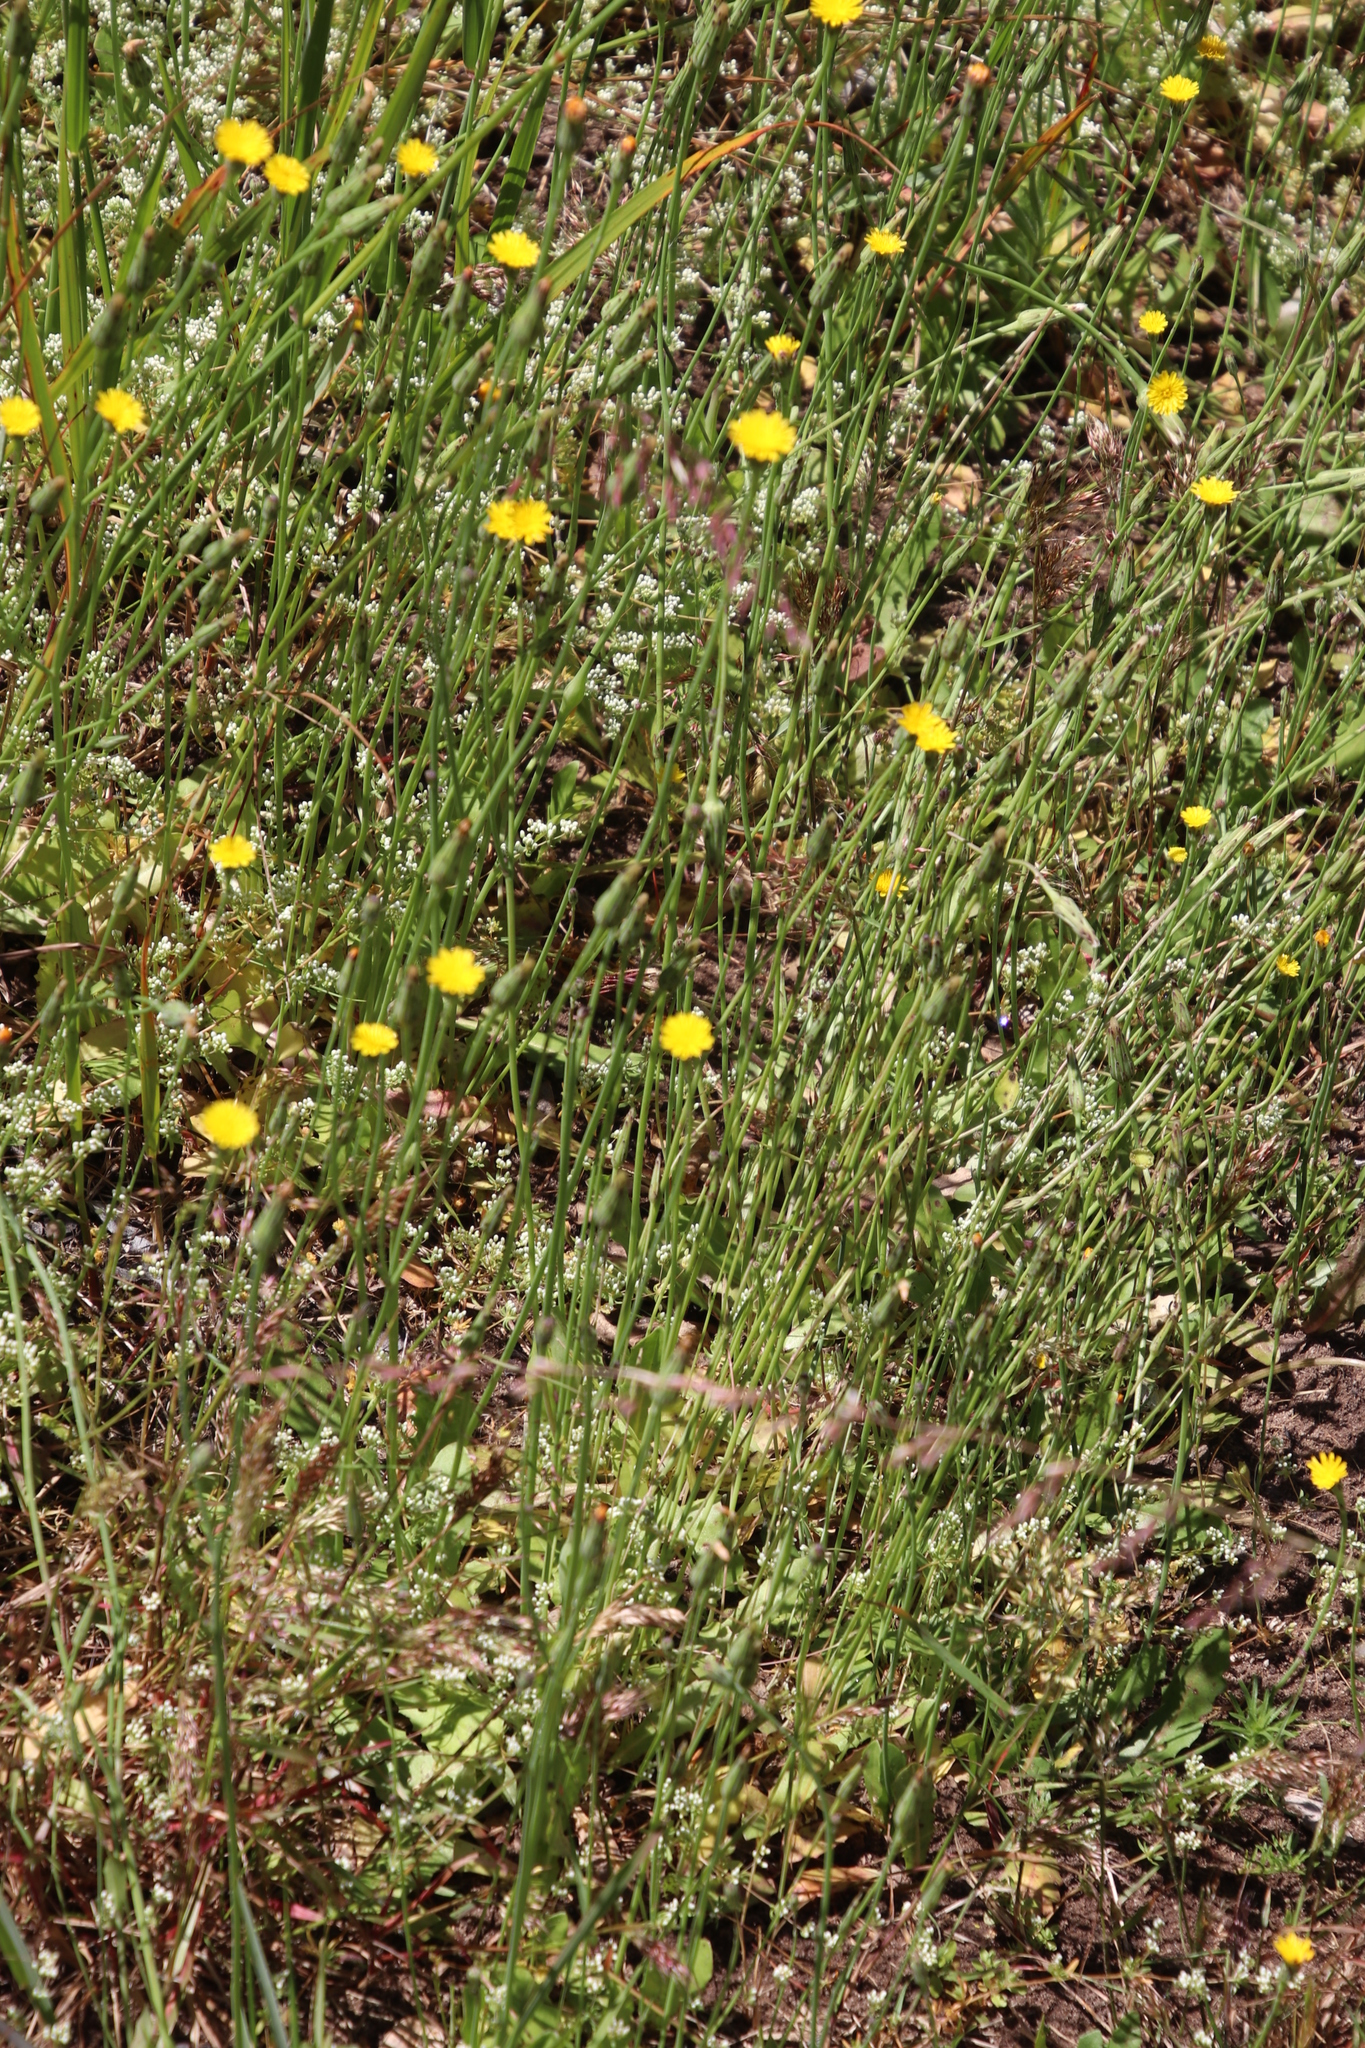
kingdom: Plantae
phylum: Tracheophyta
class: Magnoliopsida
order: Asterales
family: Asteraceae
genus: Hypochaeris
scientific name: Hypochaeris radicata
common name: Flatweed
